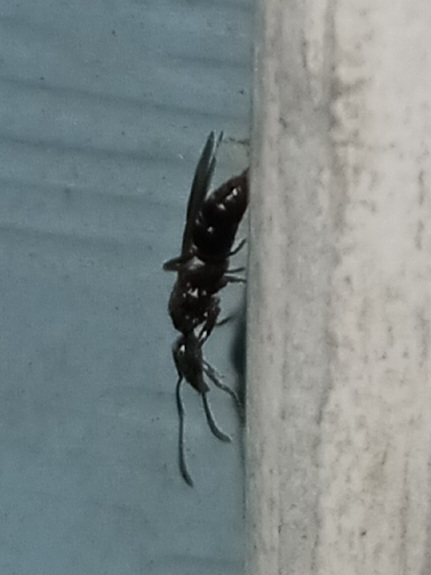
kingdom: Animalia
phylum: Arthropoda
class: Insecta
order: Hymenoptera
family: Formicidae
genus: Pachycondyla
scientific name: Pachycondyla chinensis
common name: Asian needle ant
